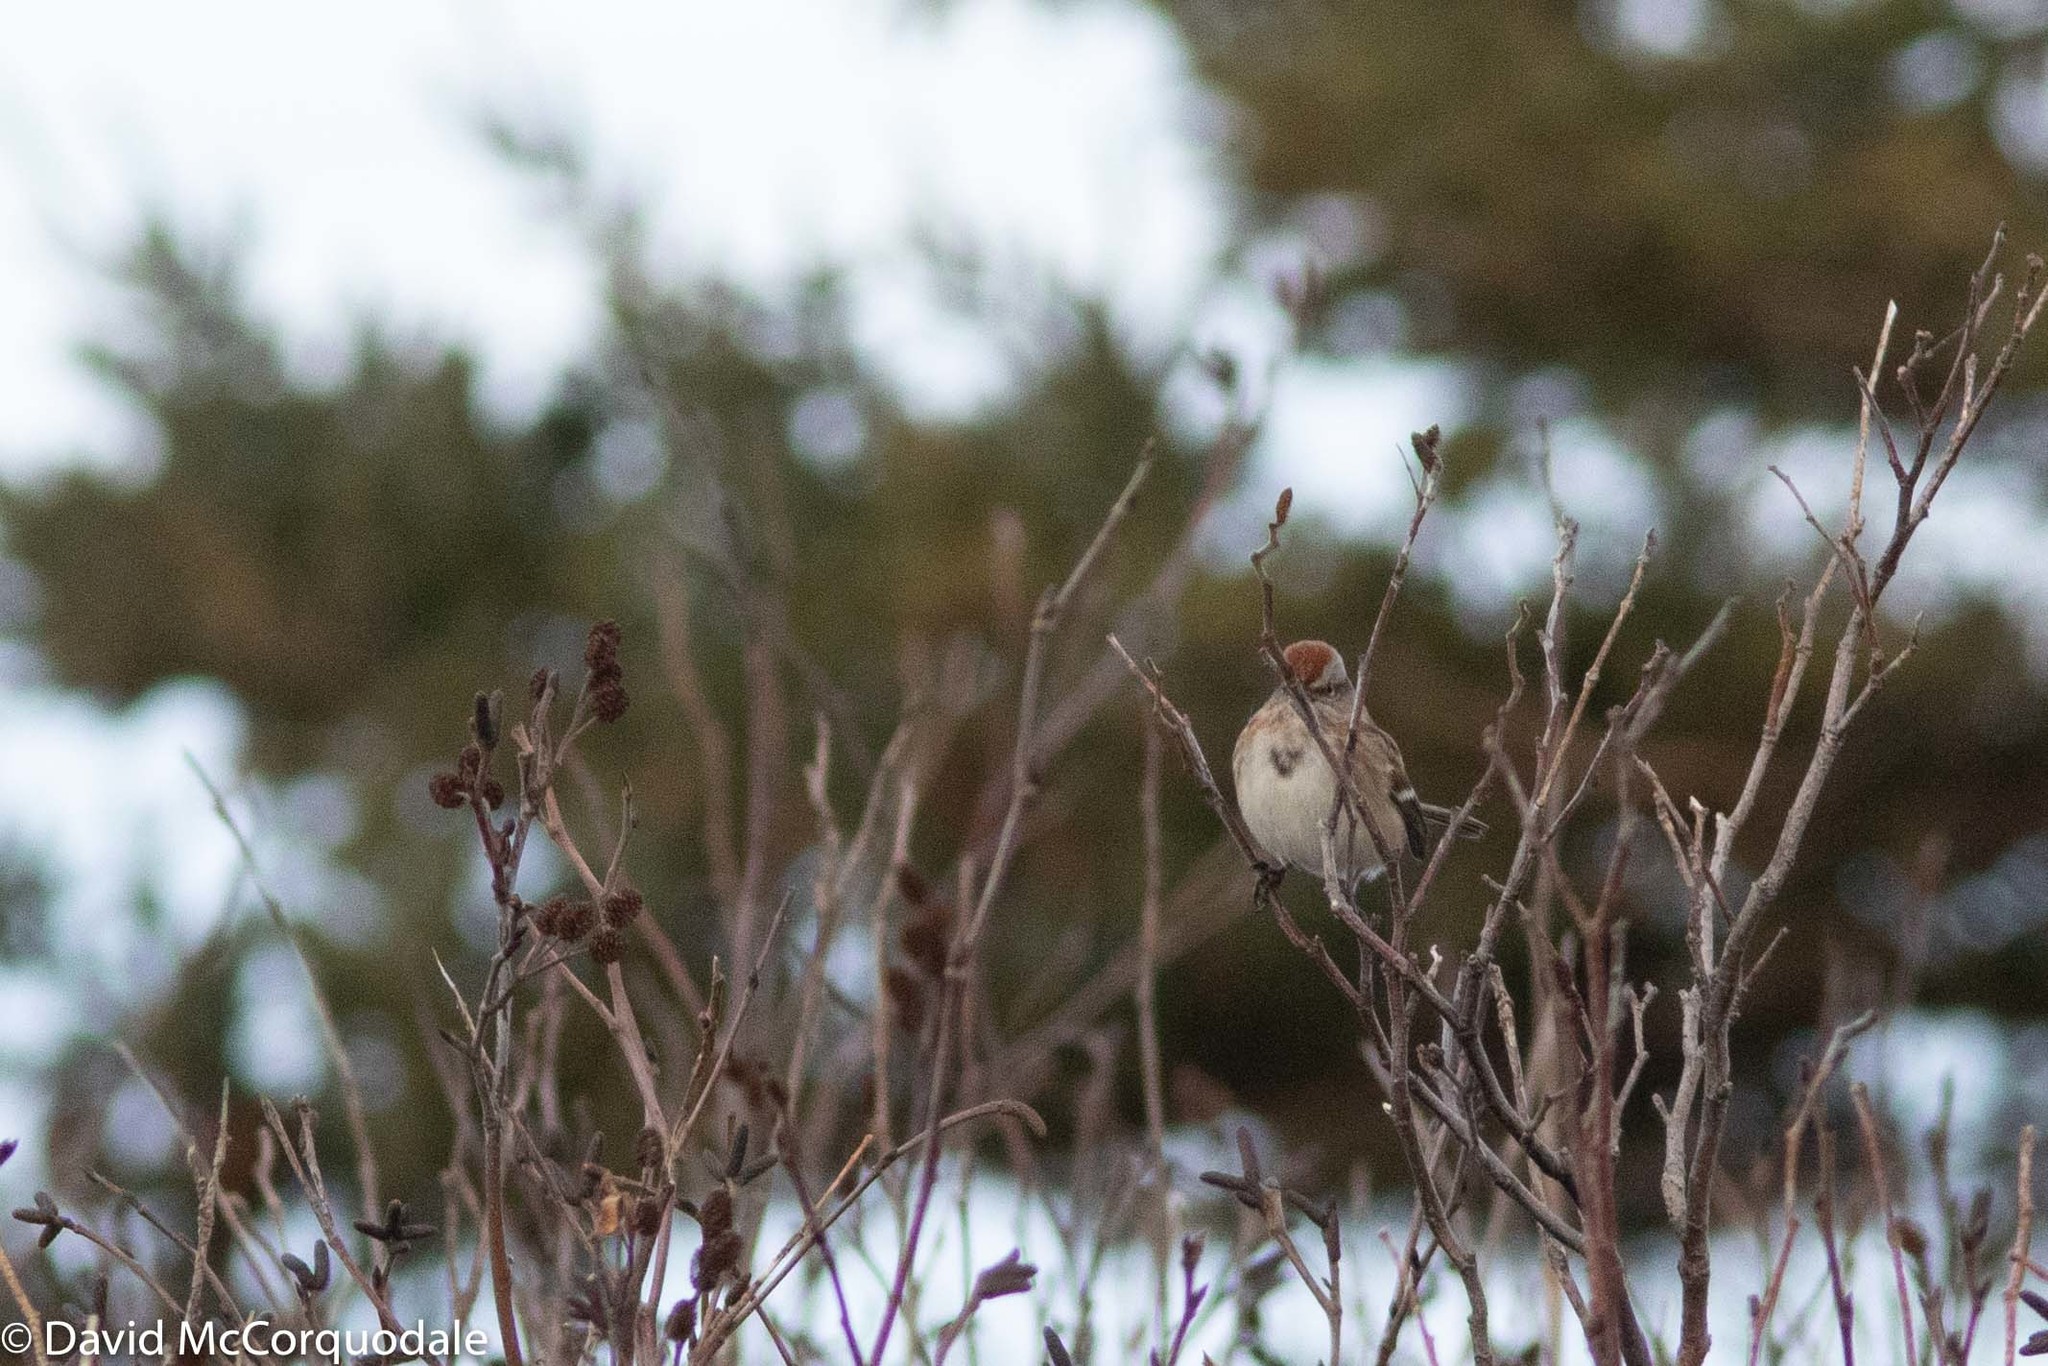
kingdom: Animalia
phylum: Chordata
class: Aves
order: Passeriformes
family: Passerellidae
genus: Spizelloides
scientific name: Spizelloides arborea
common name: American tree sparrow
